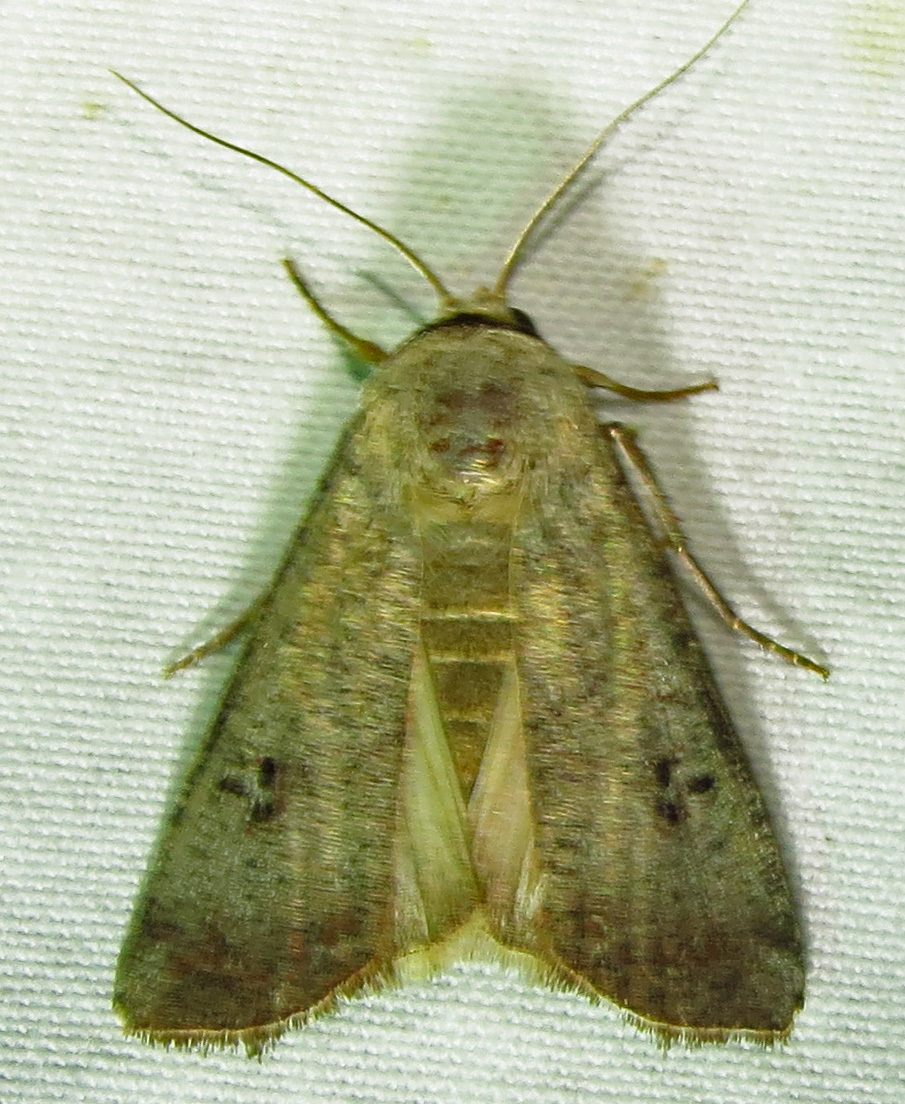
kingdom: Animalia
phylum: Arthropoda
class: Insecta
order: Lepidoptera
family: Noctuidae
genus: Anicla
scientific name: Anicla infecta
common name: Green cutworm
